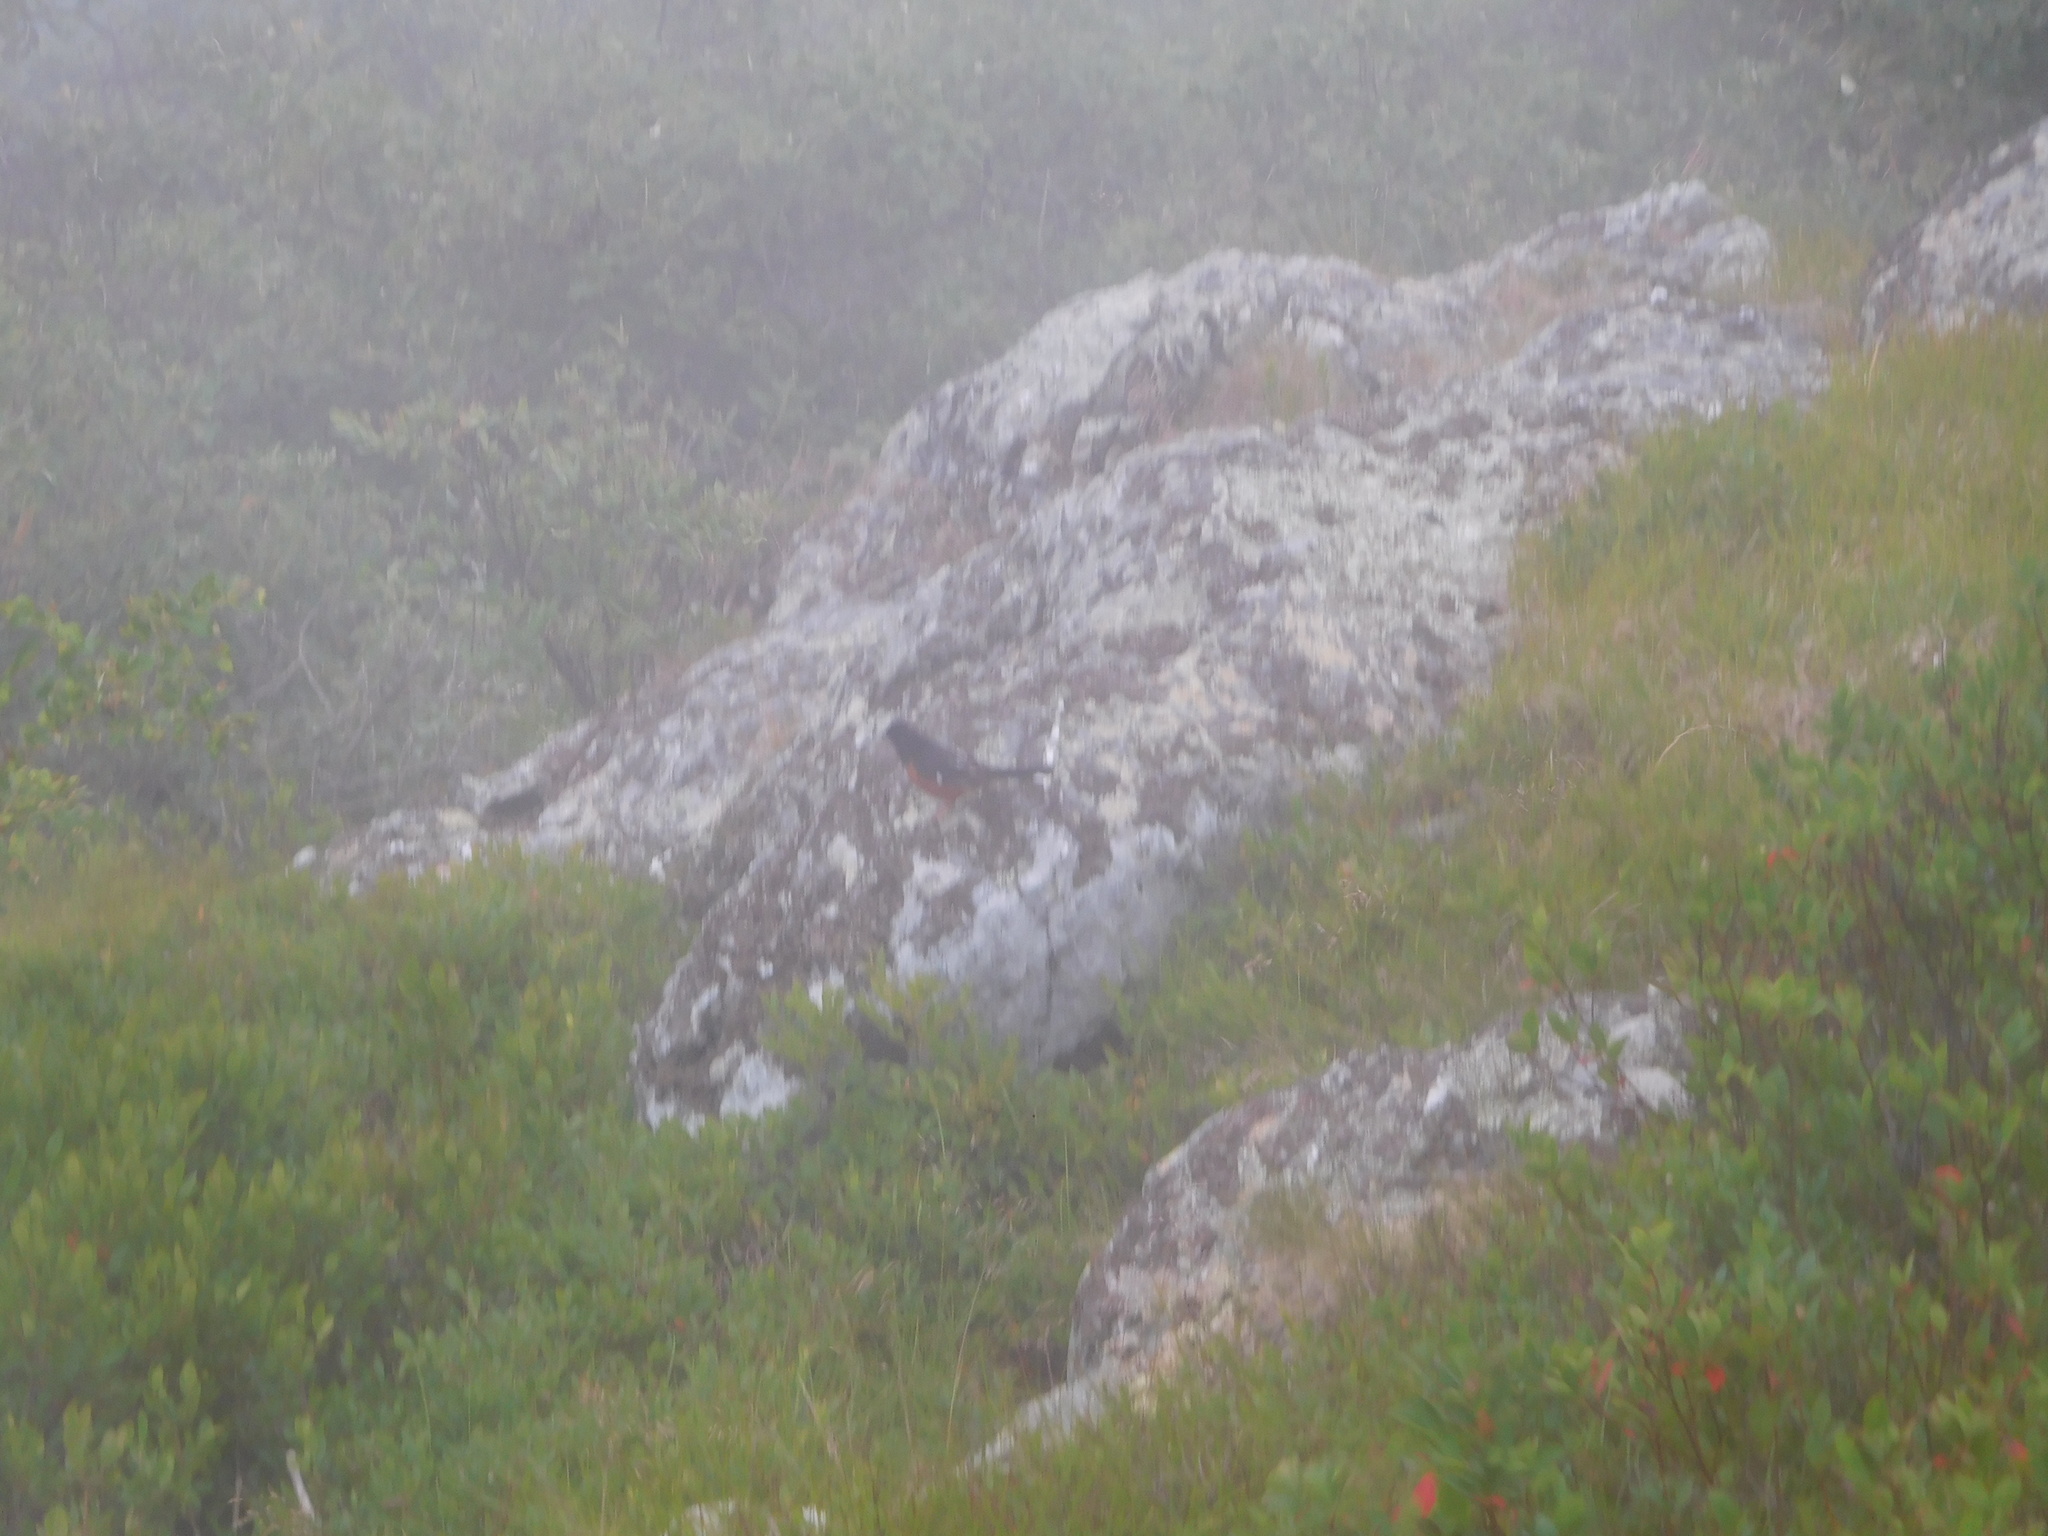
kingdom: Animalia
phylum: Chordata
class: Aves
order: Passeriformes
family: Passerellidae
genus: Pipilo
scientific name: Pipilo erythrophthalmus
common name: Eastern towhee
